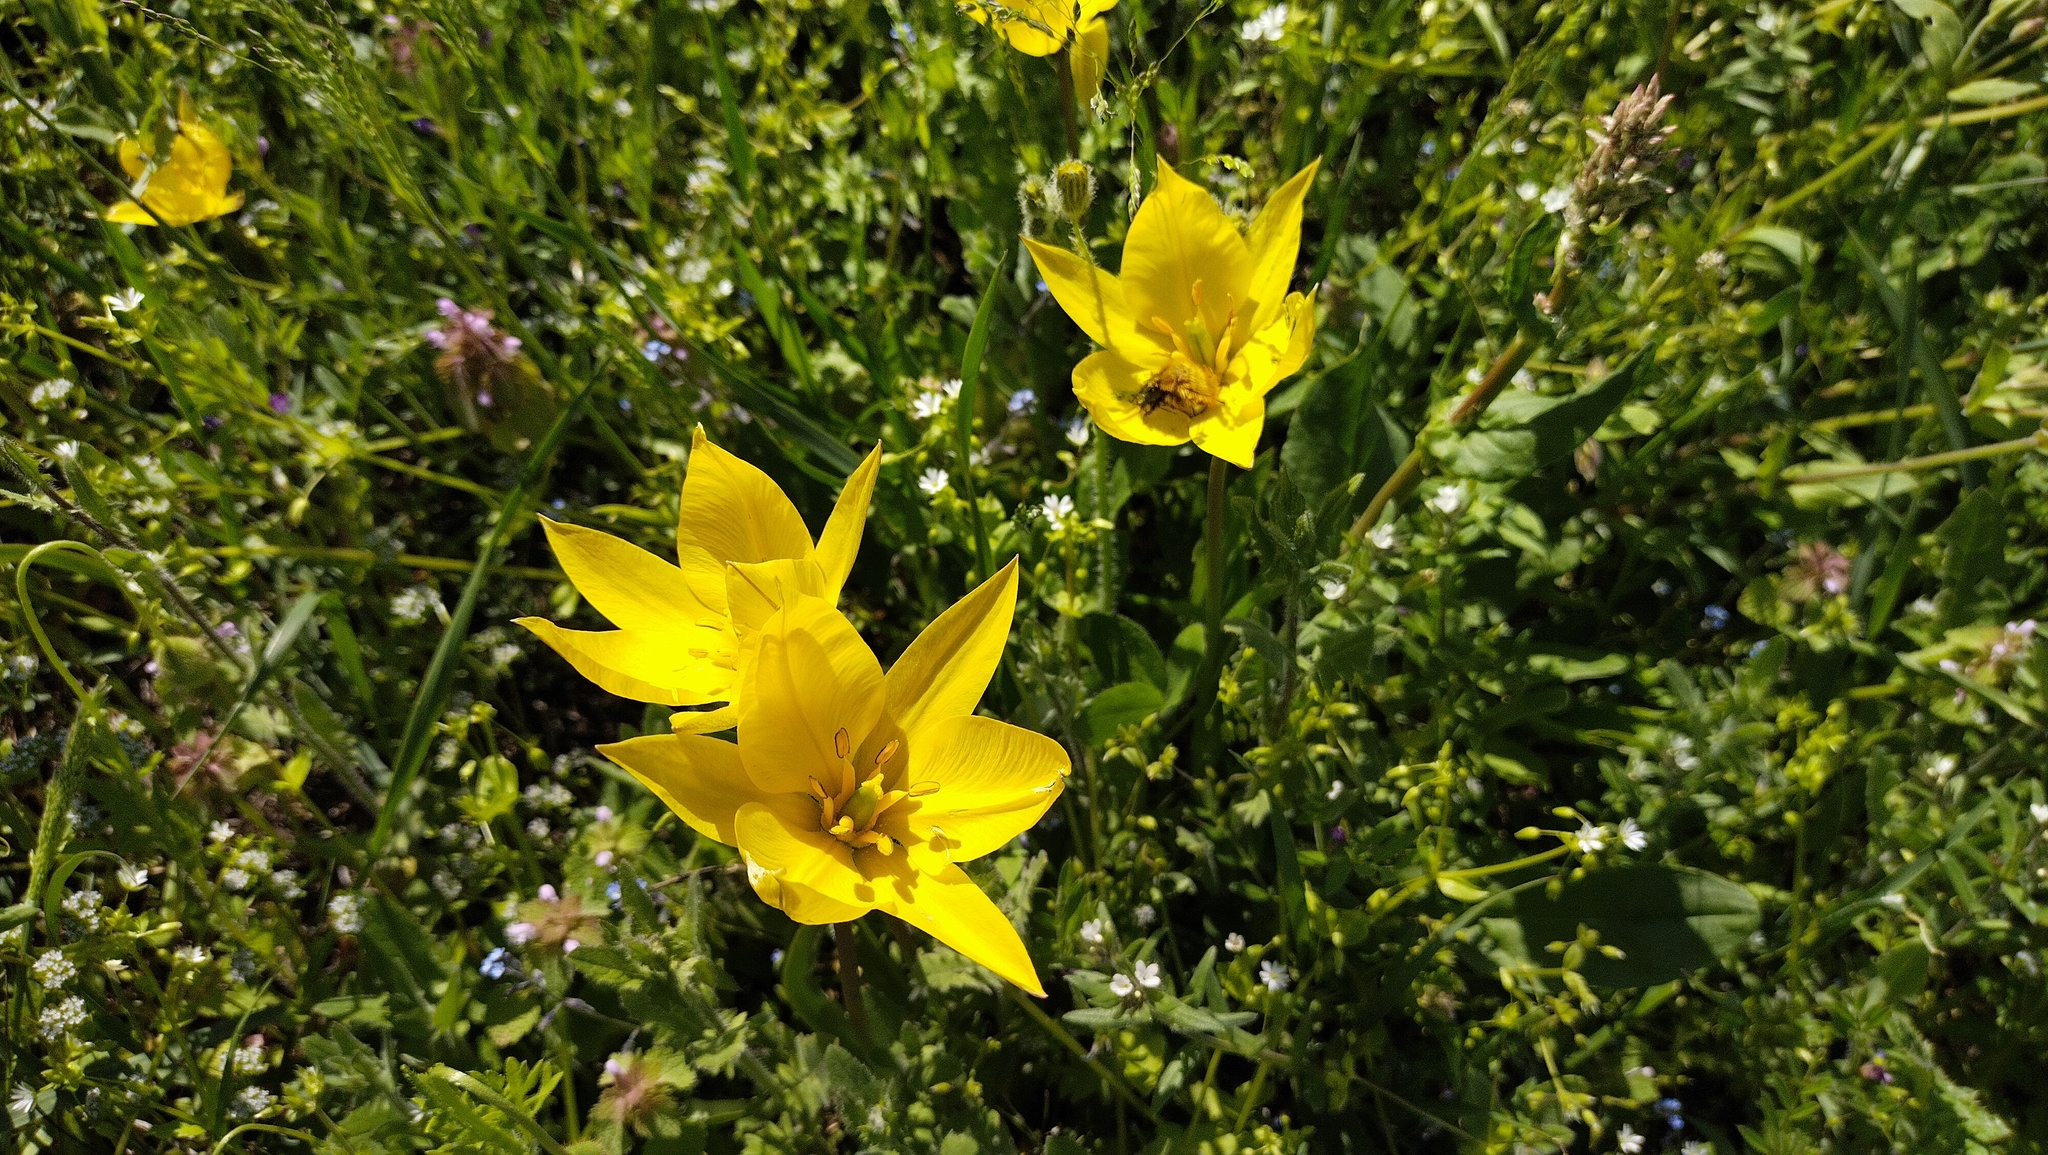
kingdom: Plantae
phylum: Tracheophyta
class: Liliopsida
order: Liliales
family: Liliaceae
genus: Tulipa
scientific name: Tulipa sylvestris
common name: Wild tulip
